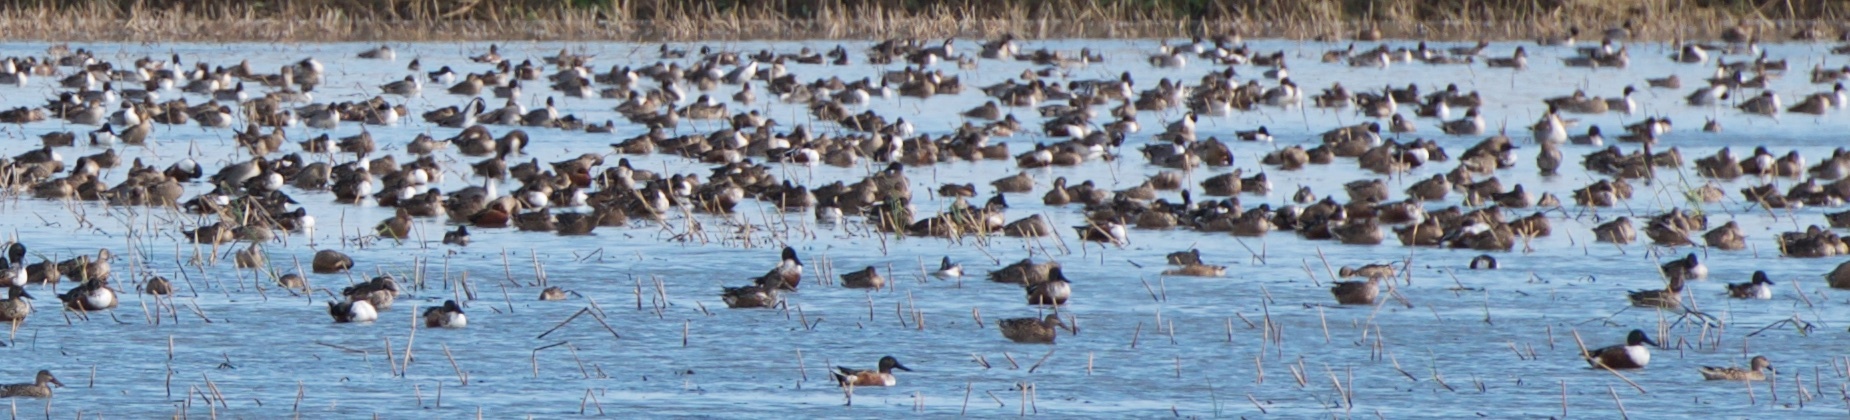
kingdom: Animalia
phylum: Chordata
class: Aves
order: Anseriformes
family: Anatidae
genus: Spatula
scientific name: Spatula clypeata
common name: Northern shoveler
